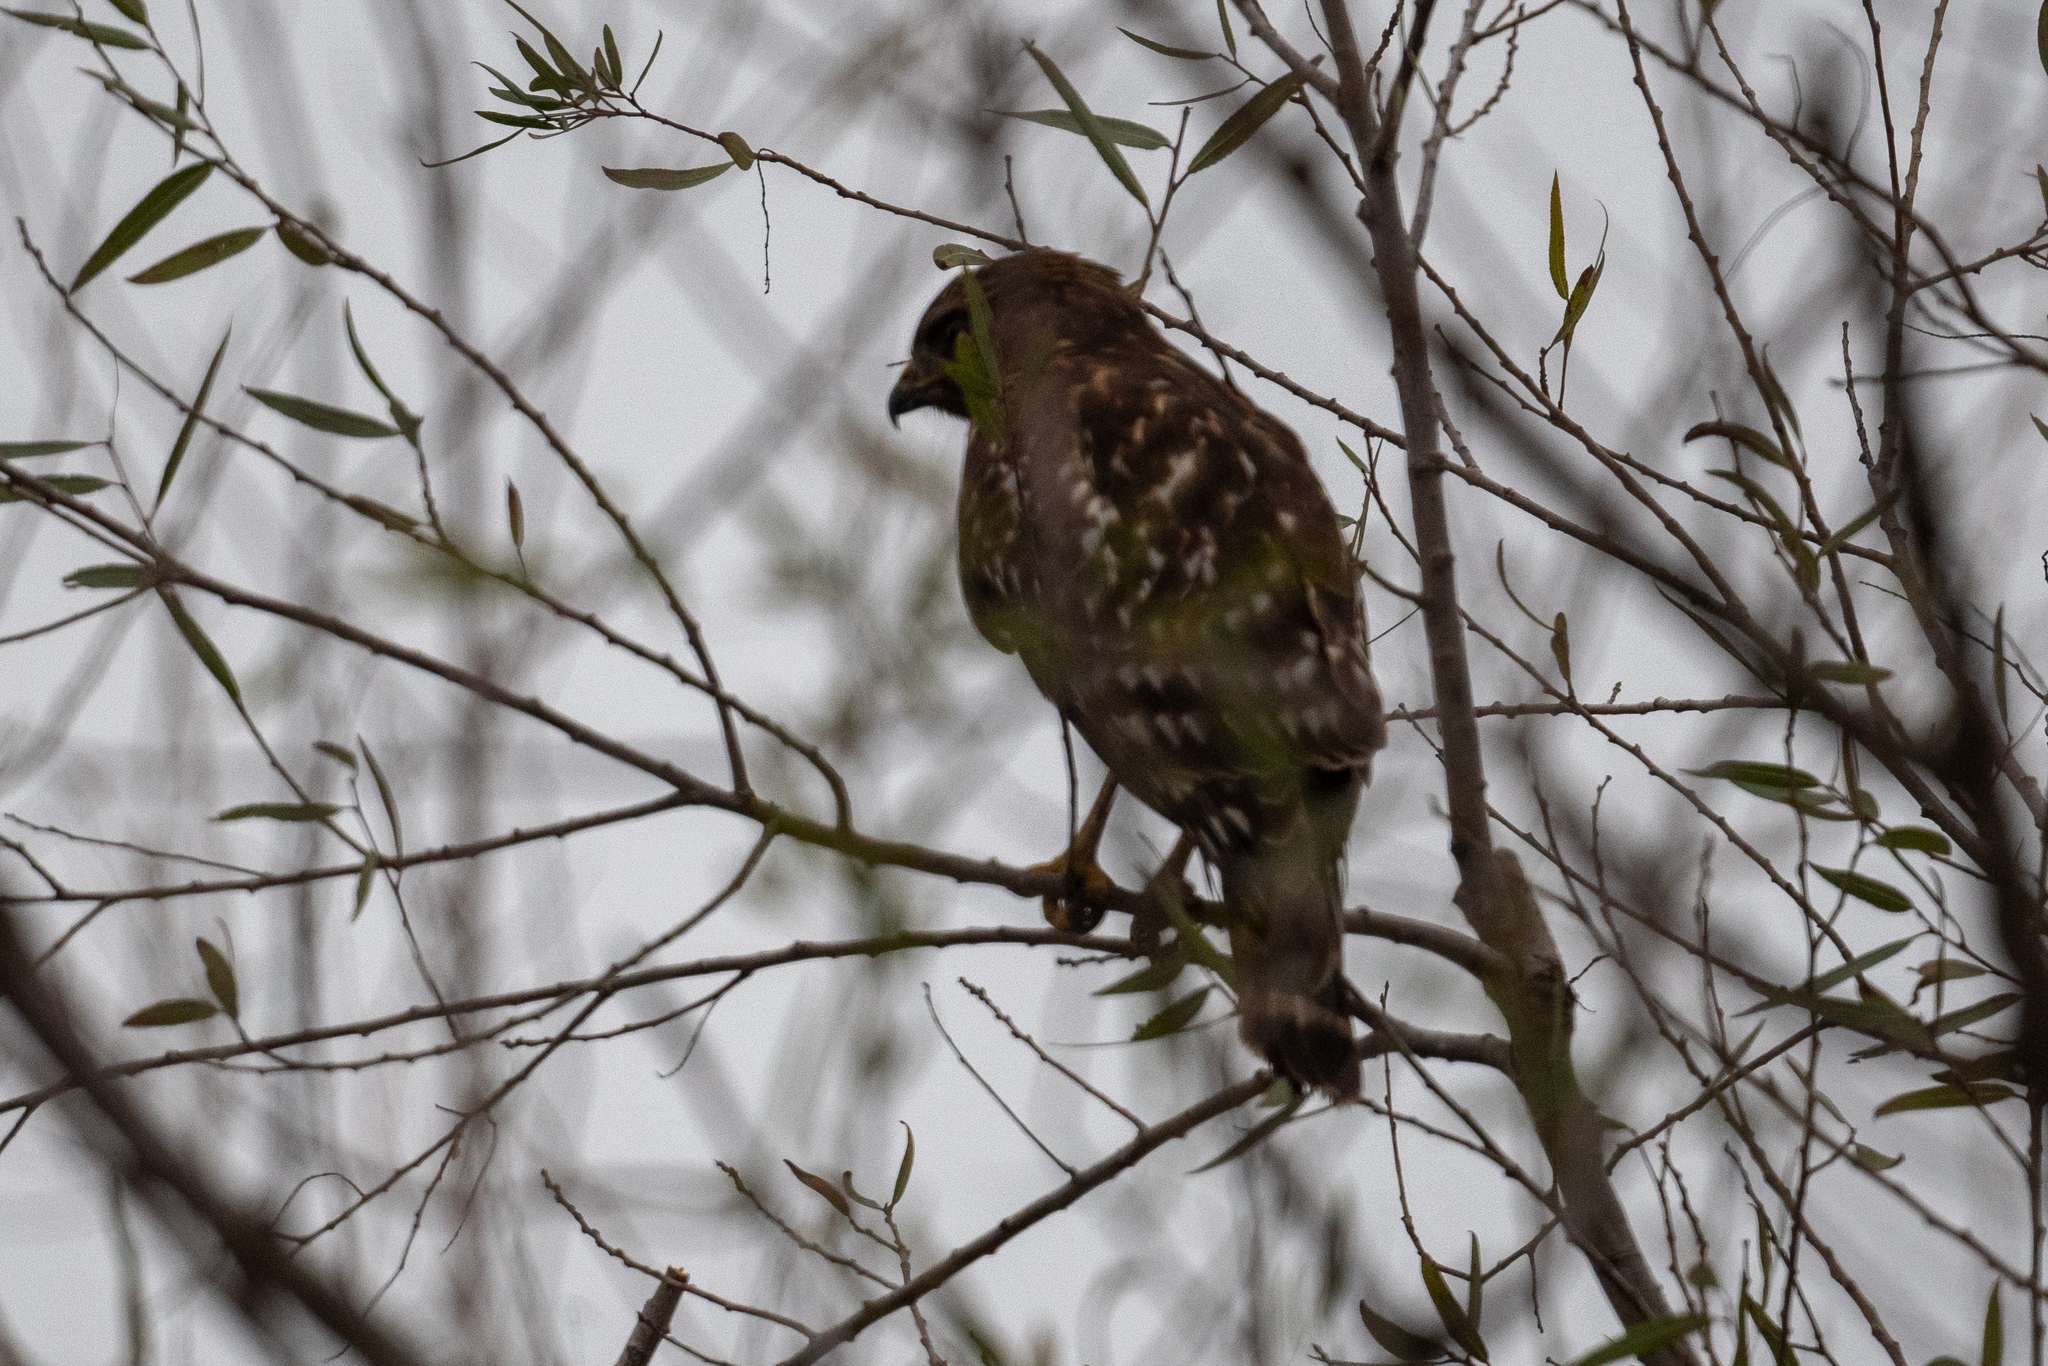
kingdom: Animalia
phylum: Chordata
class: Aves
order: Accipitriformes
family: Accipitridae
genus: Buteo
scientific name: Buteo lineatus
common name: Red-shouldered hawk
